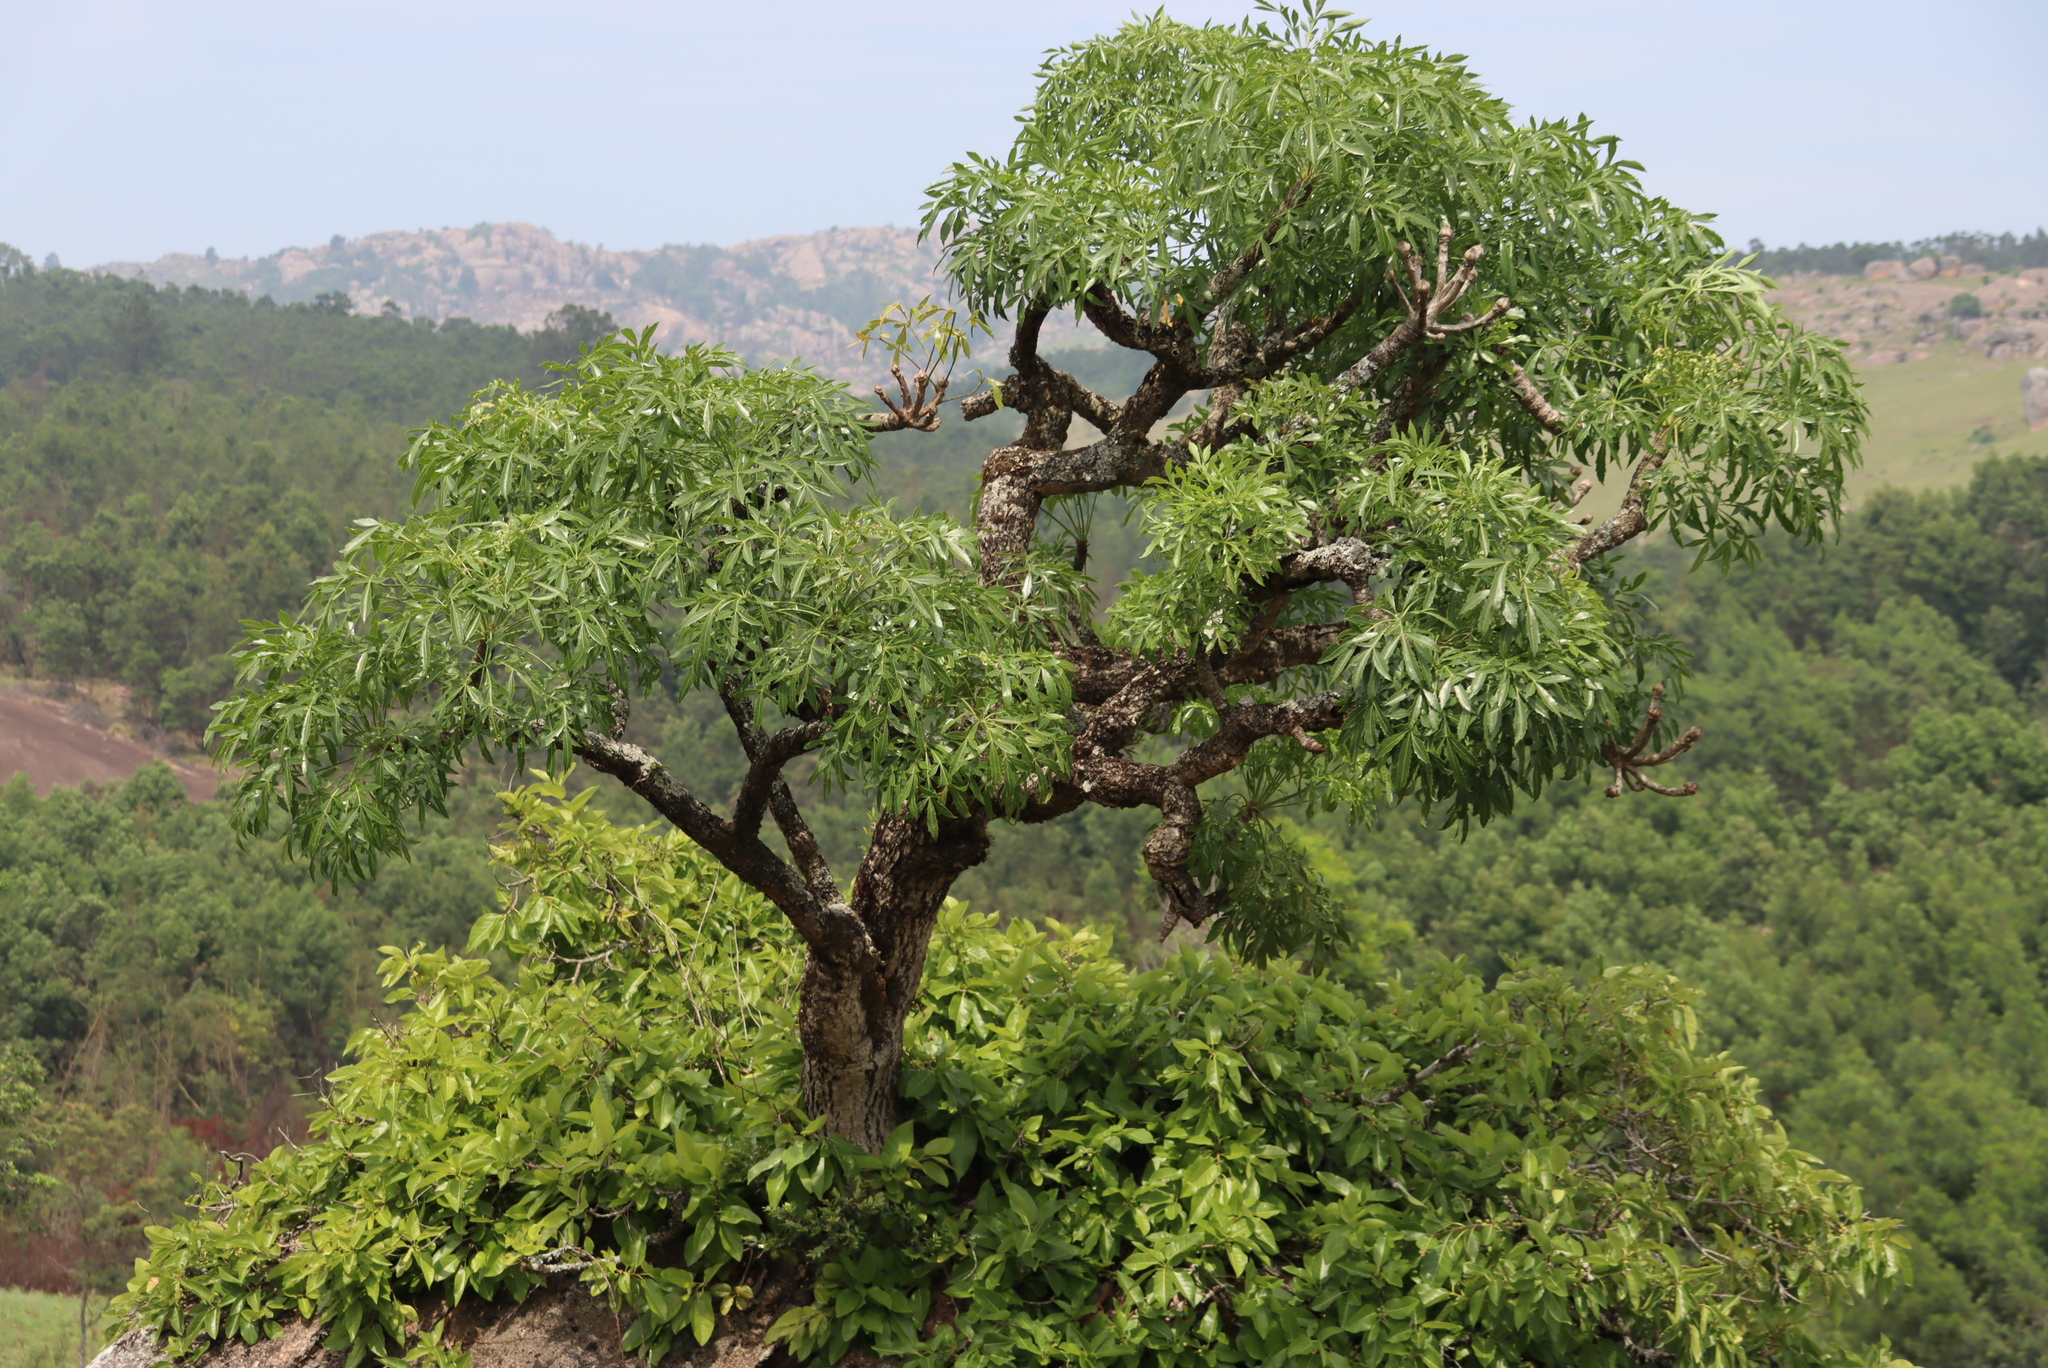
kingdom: Plantae
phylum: Tracheophyta
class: Magnoliopsida
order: Apiales
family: Araliaceae
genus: Cussonia
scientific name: Cussonia spicata
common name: Common cabbagetree
